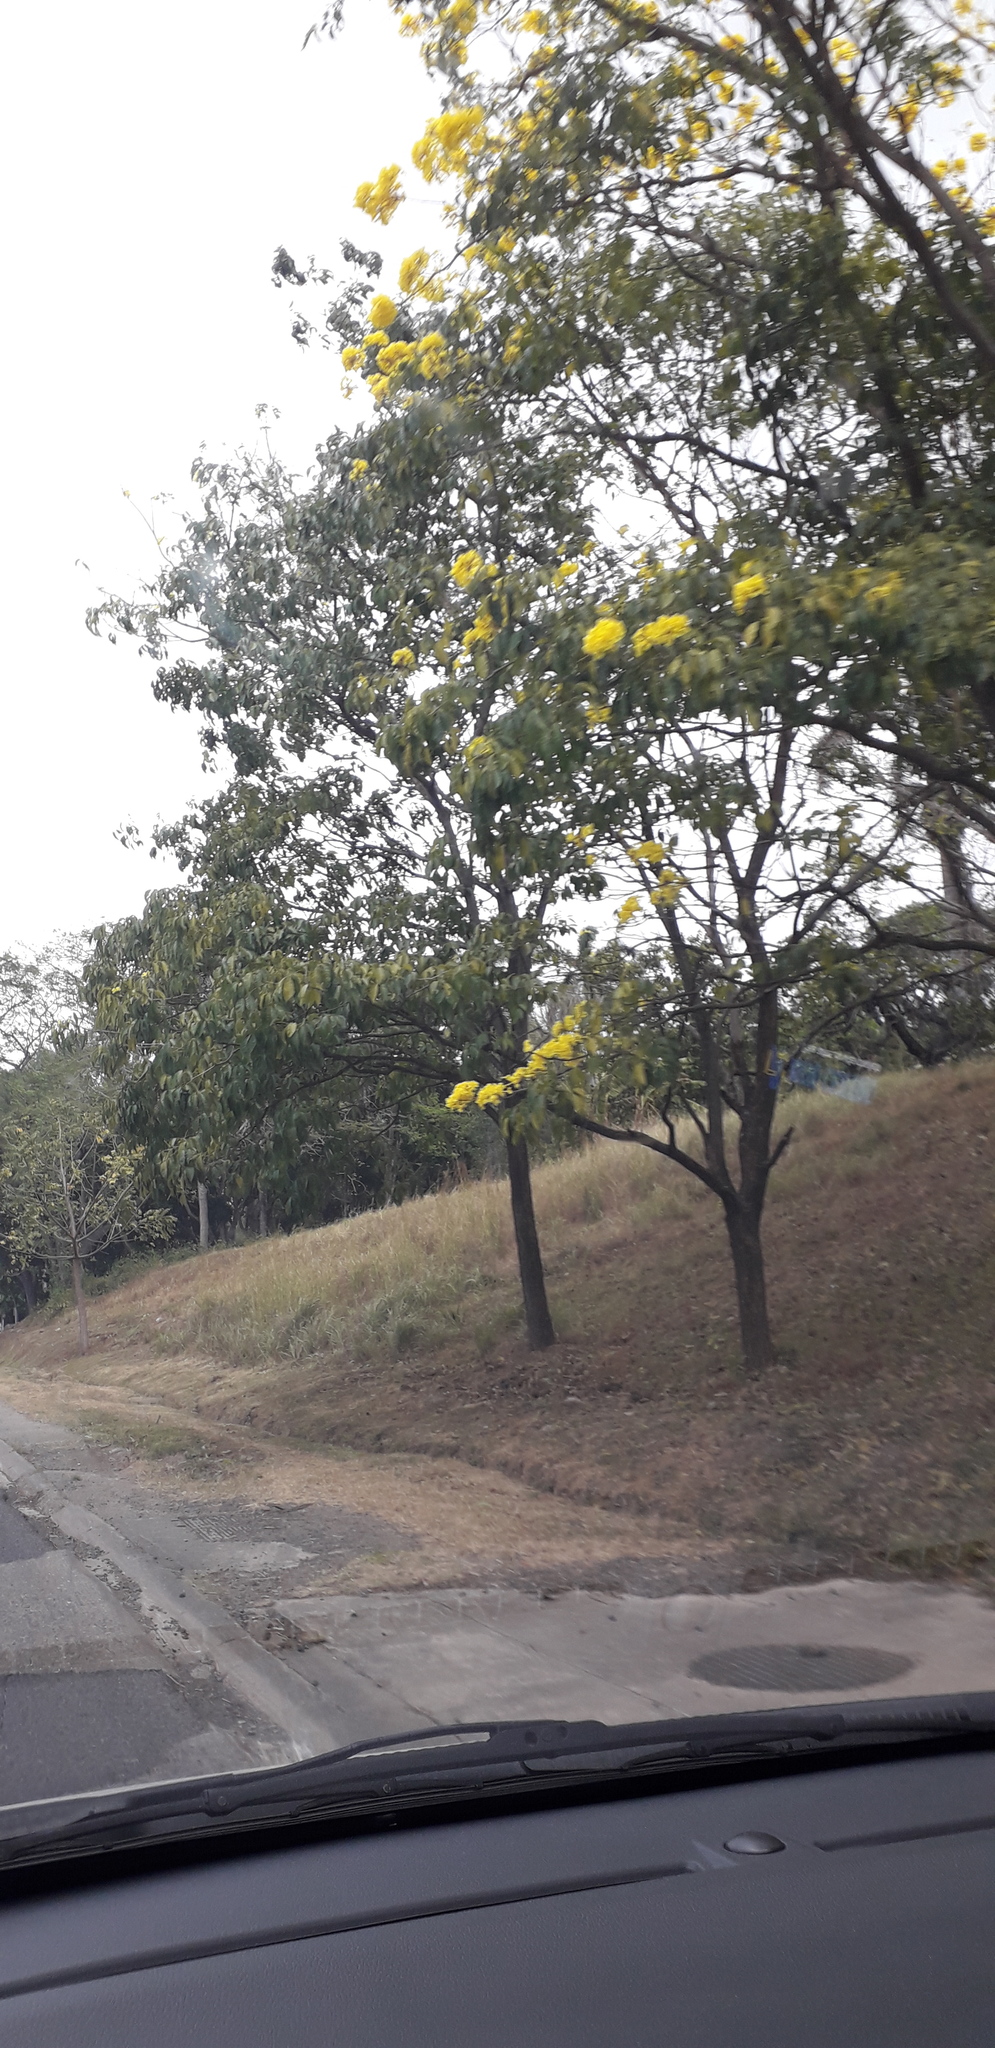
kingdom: Plantae
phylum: Tracheophyta
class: Magnoliopsida
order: Lamiales
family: Bignoniaceae
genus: Handroanthus
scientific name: Handroanthus guayacan
